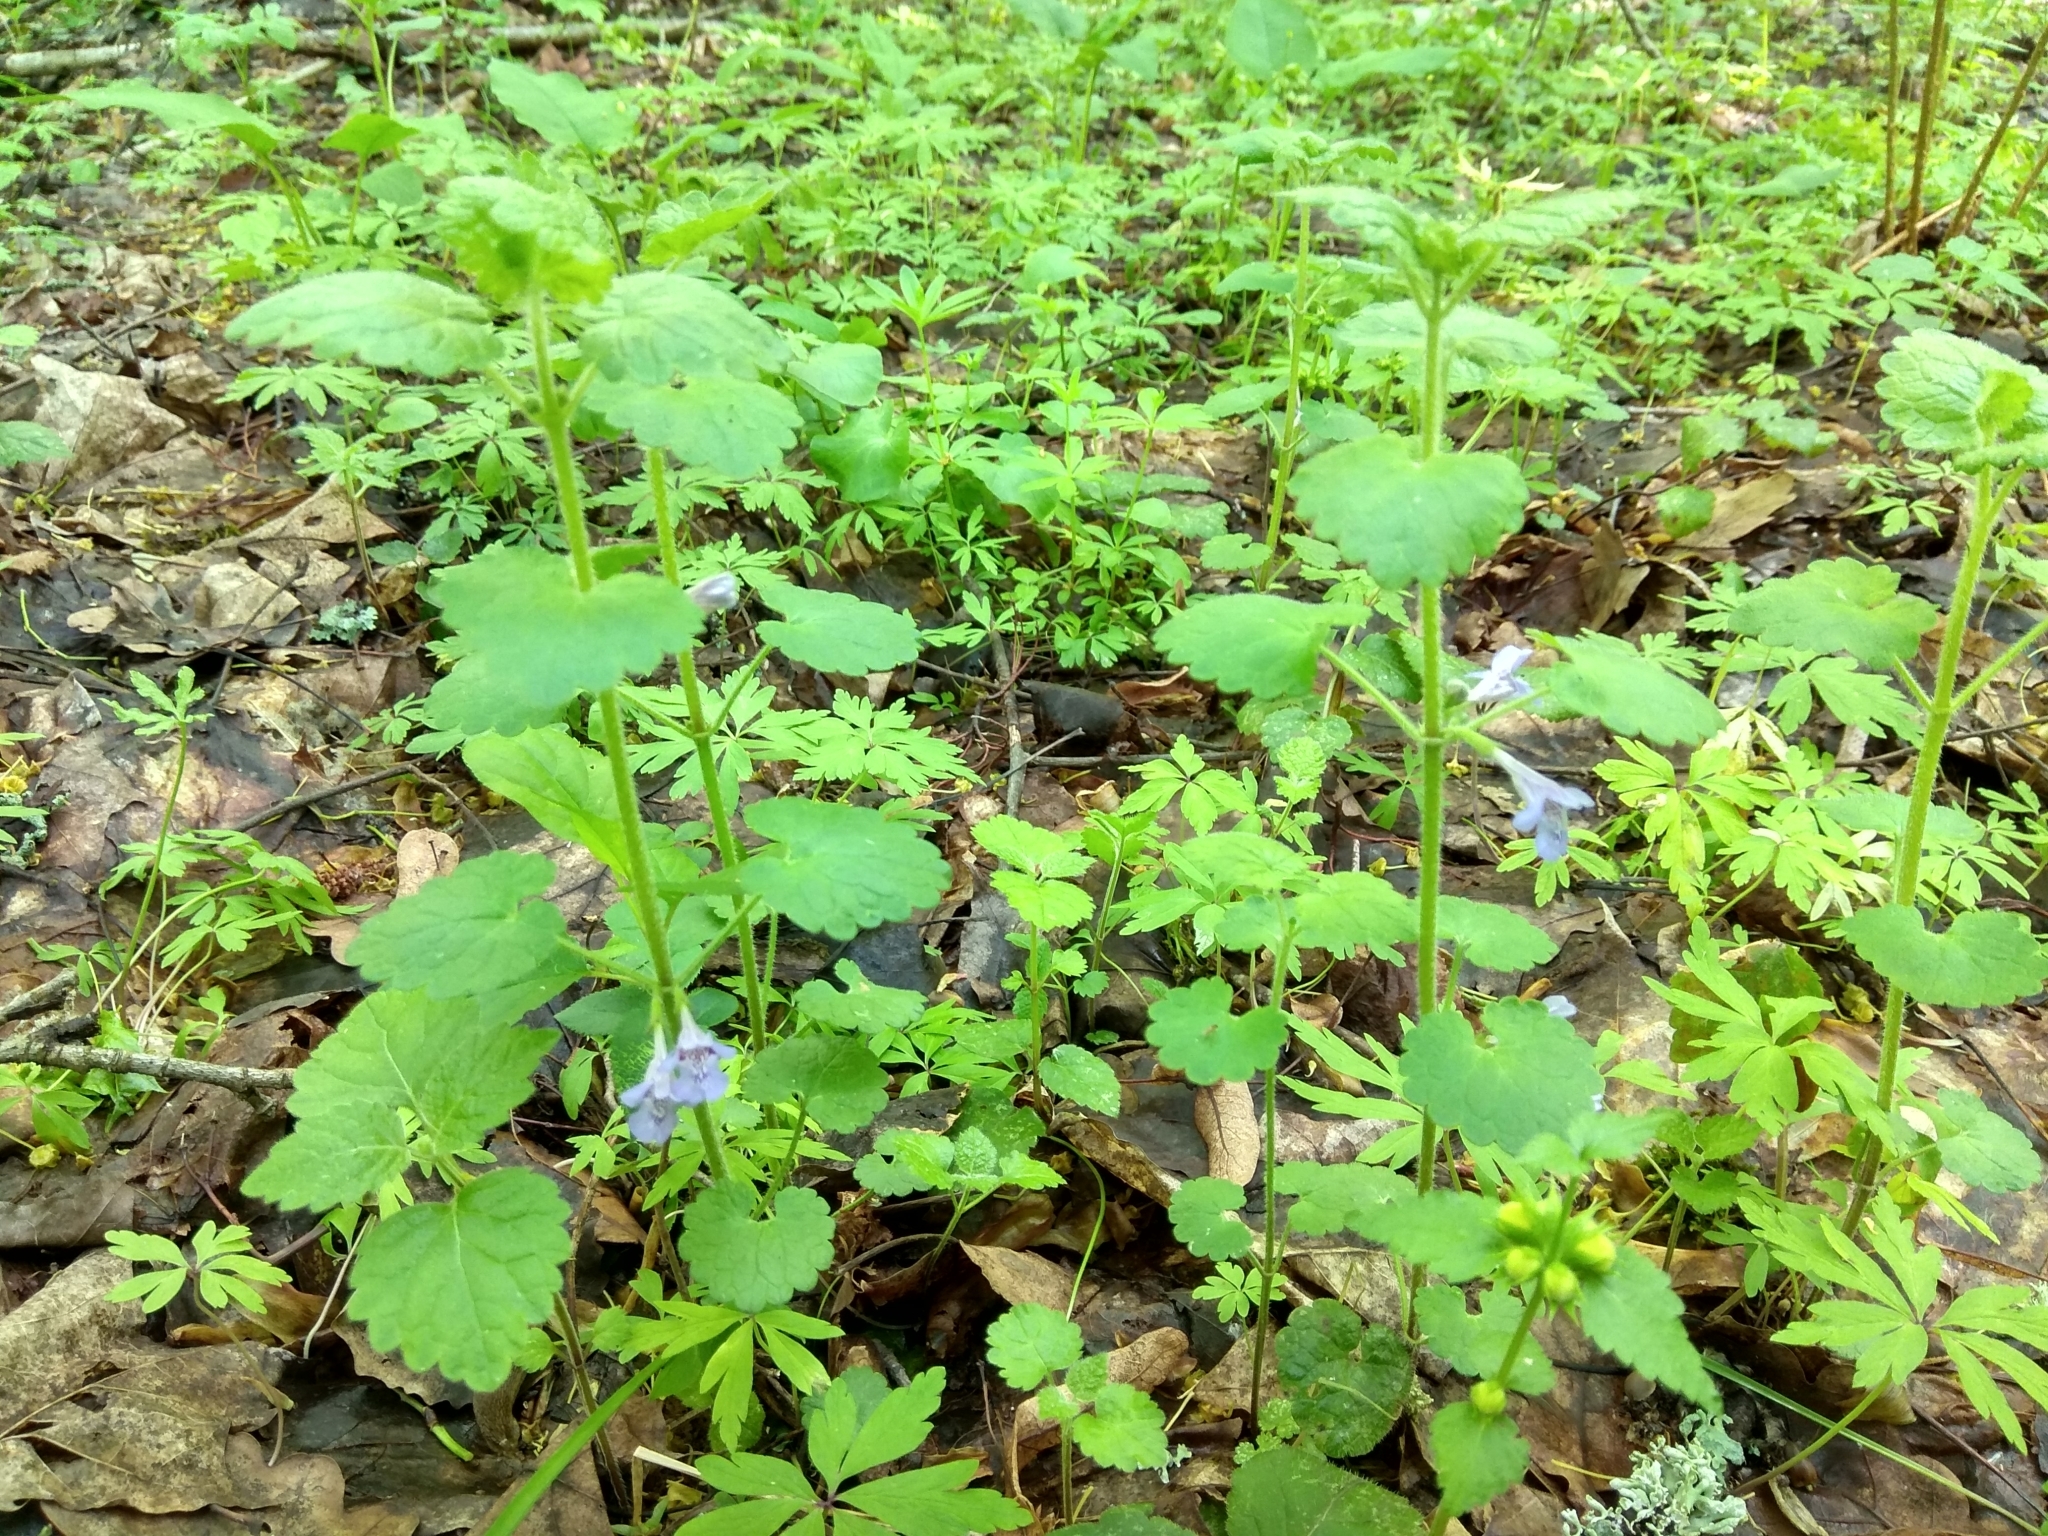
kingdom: Plantae
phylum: Tracheophyta
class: Magnoliopsida
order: Lamiales
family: Lamiaceae
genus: Glechoma
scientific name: Glechoma hederacea
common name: Ground ivy
